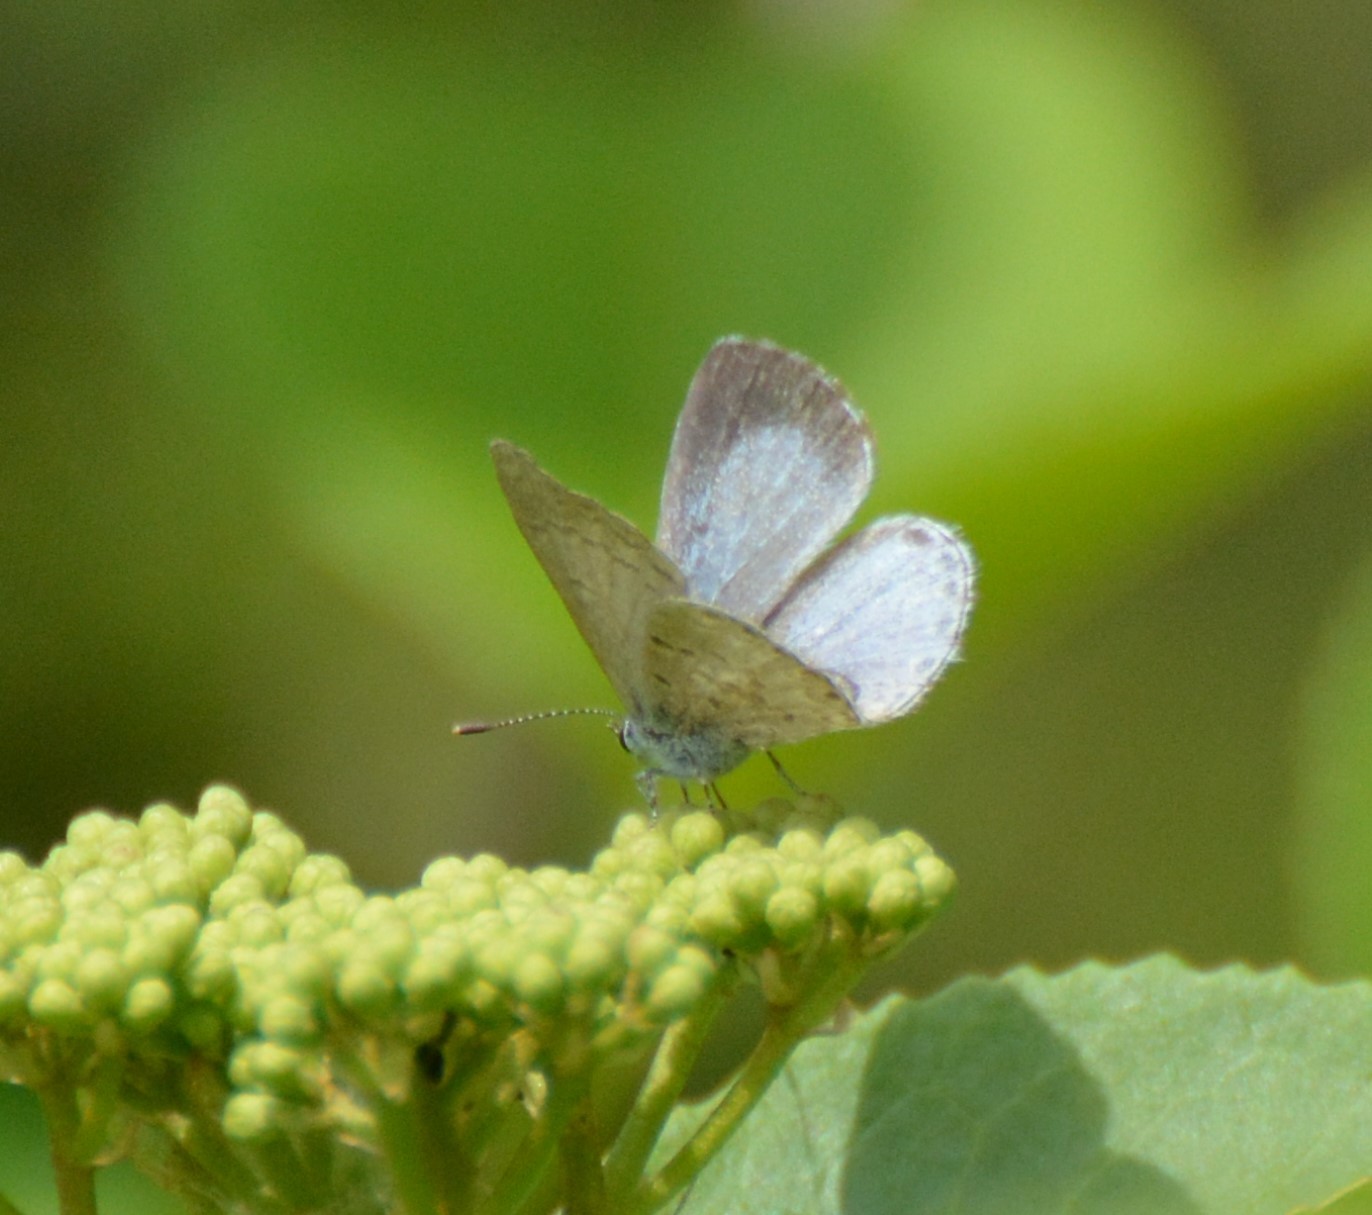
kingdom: Animalia
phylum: Arthropoda
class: Insecta
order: Lepidoptera
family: Lycaenidae
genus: Celastrina
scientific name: Celastrina lucia
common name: Lucia azure
